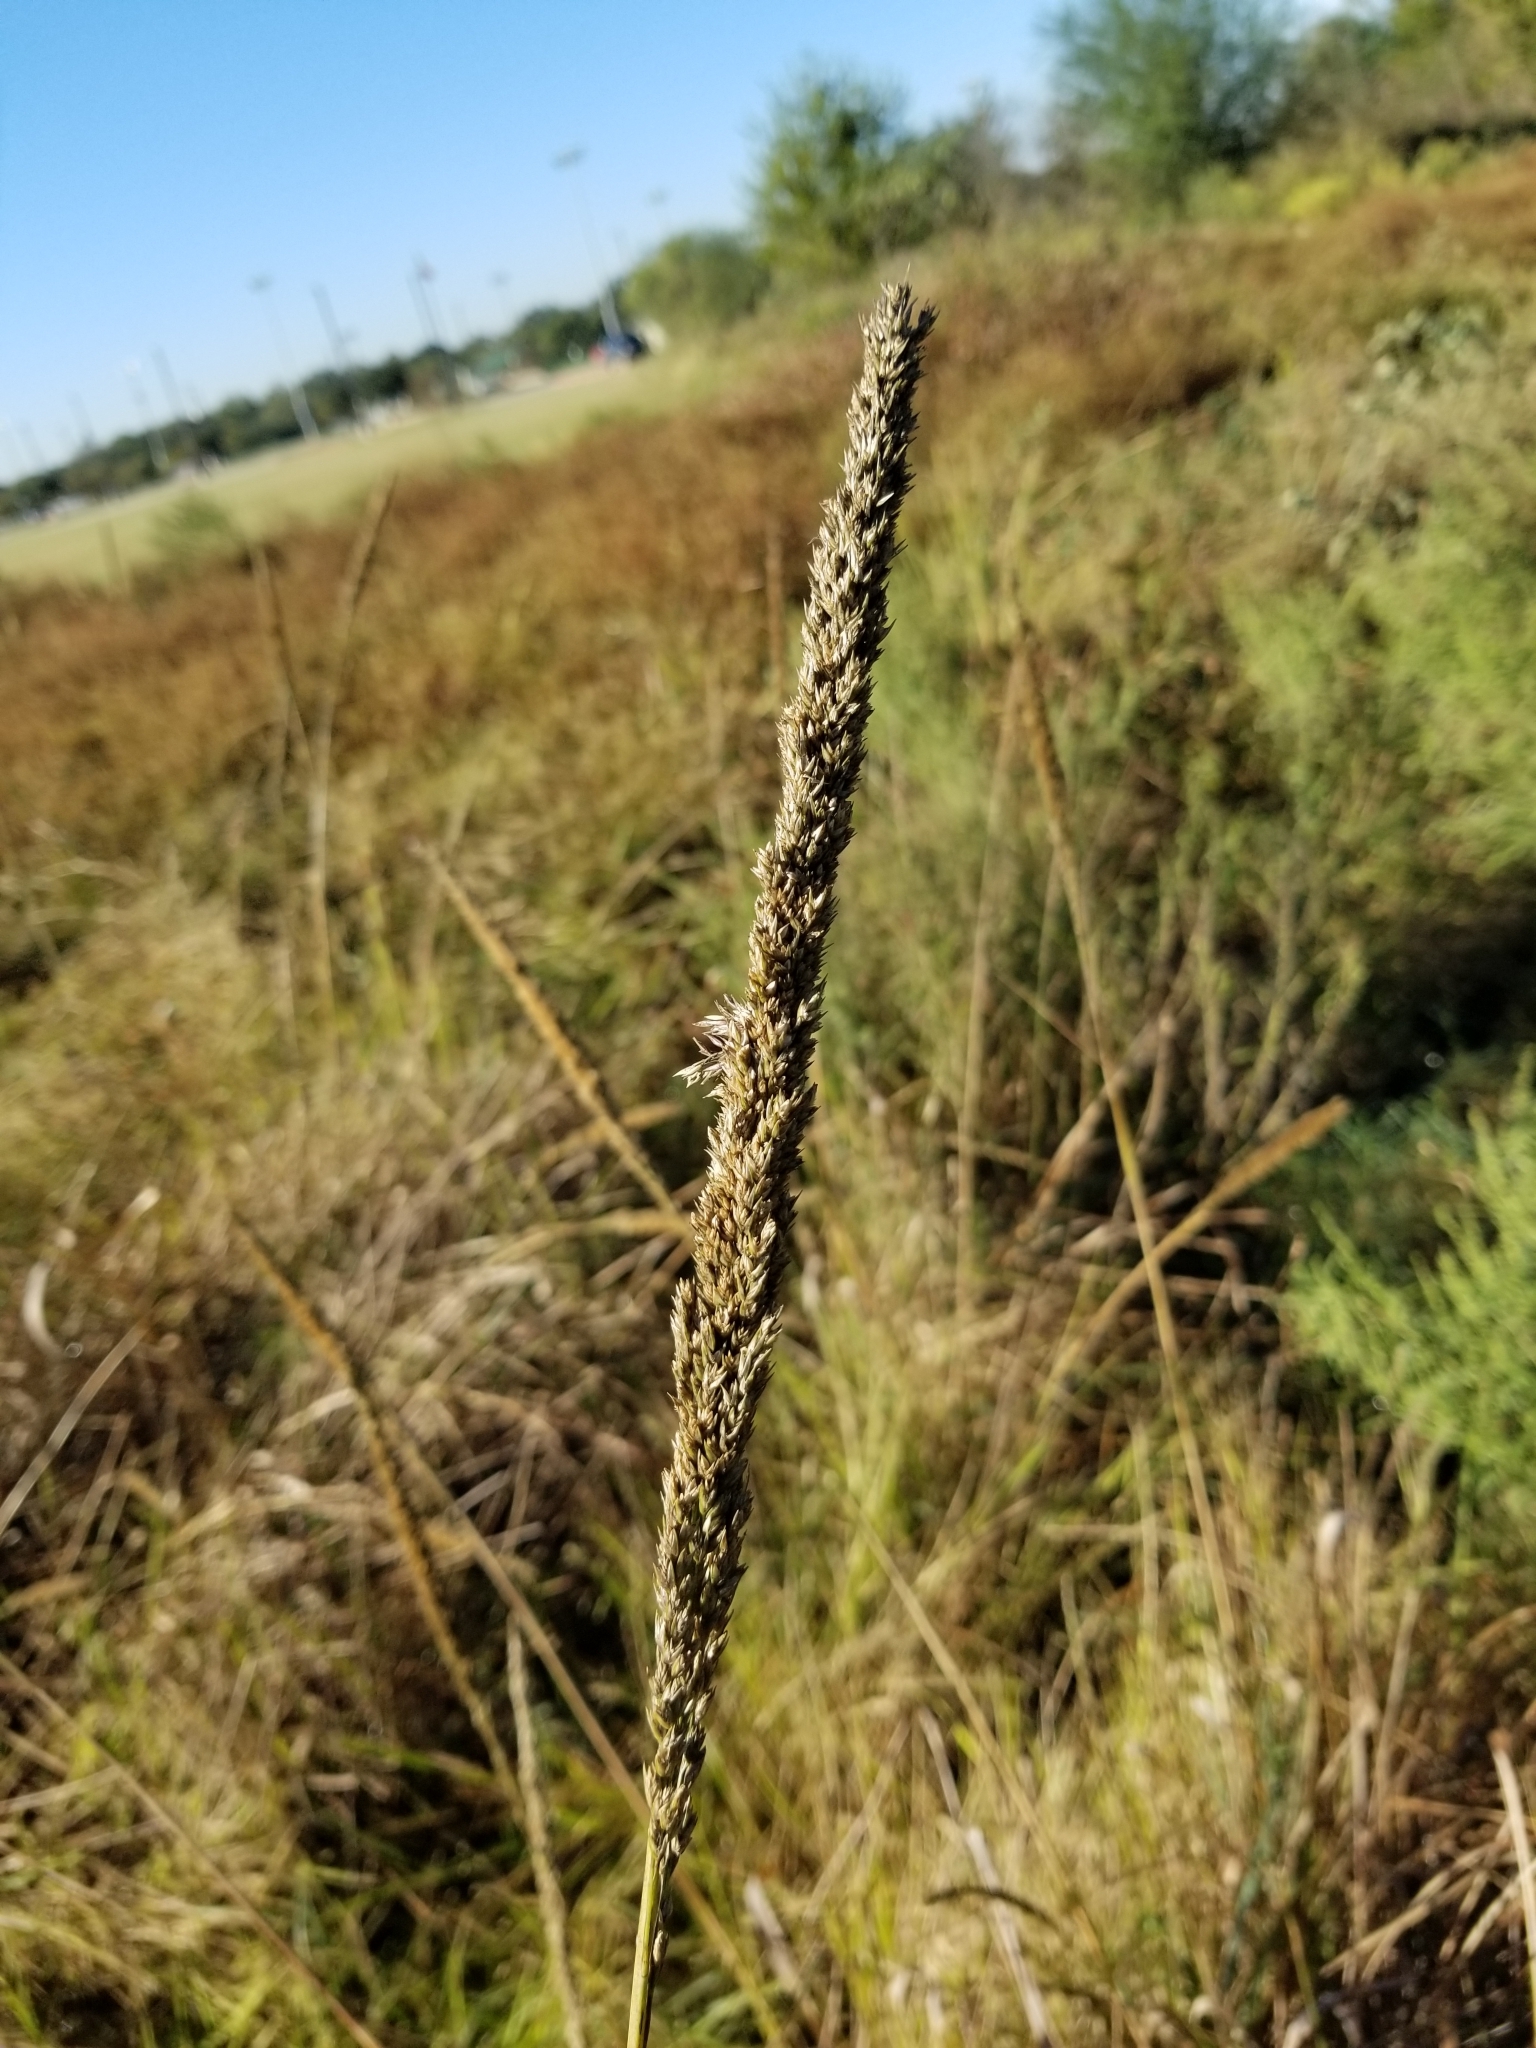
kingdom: Plantae
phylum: Tracheophyta
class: Liliopsida
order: Poales
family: Poaceae
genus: Tridens
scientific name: Tridens strictus
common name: Long-spike tridens
